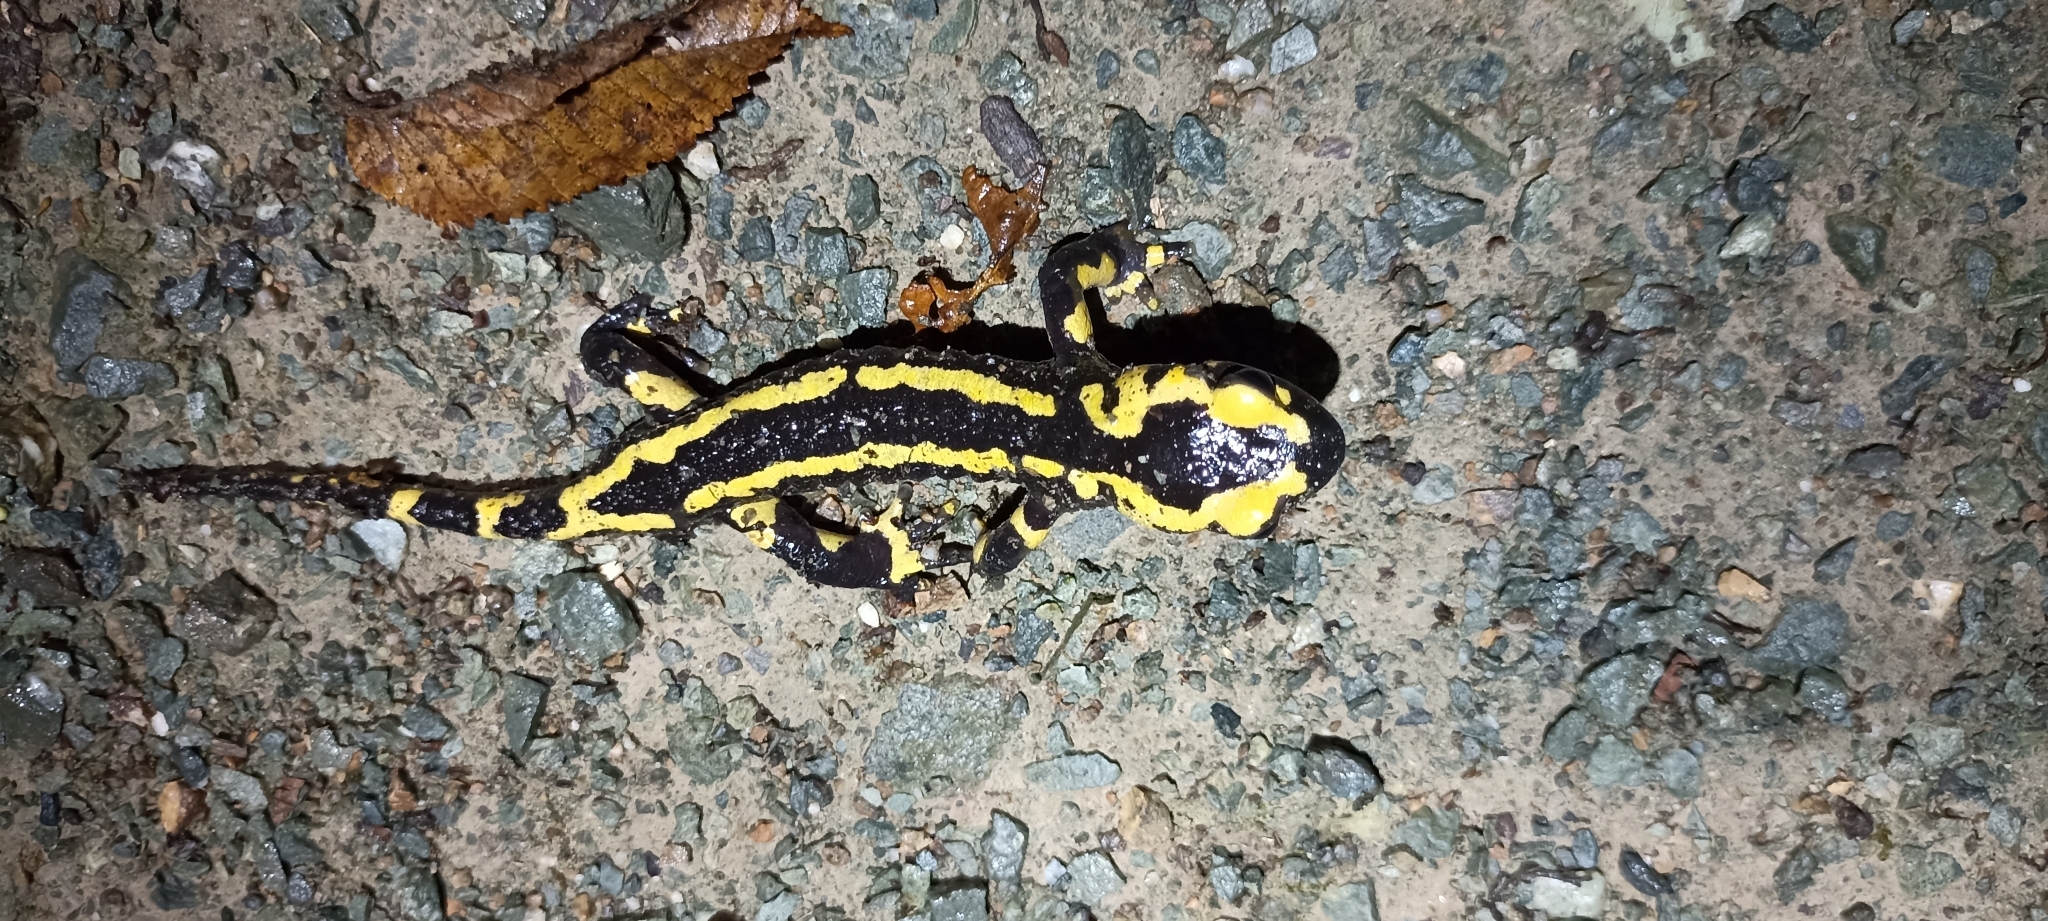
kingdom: Animalia
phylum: Chordata
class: Amphibia
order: Caudata
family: Salamandridae
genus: Salamandra
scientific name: Salamandra salamandra
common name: Fire salamander
